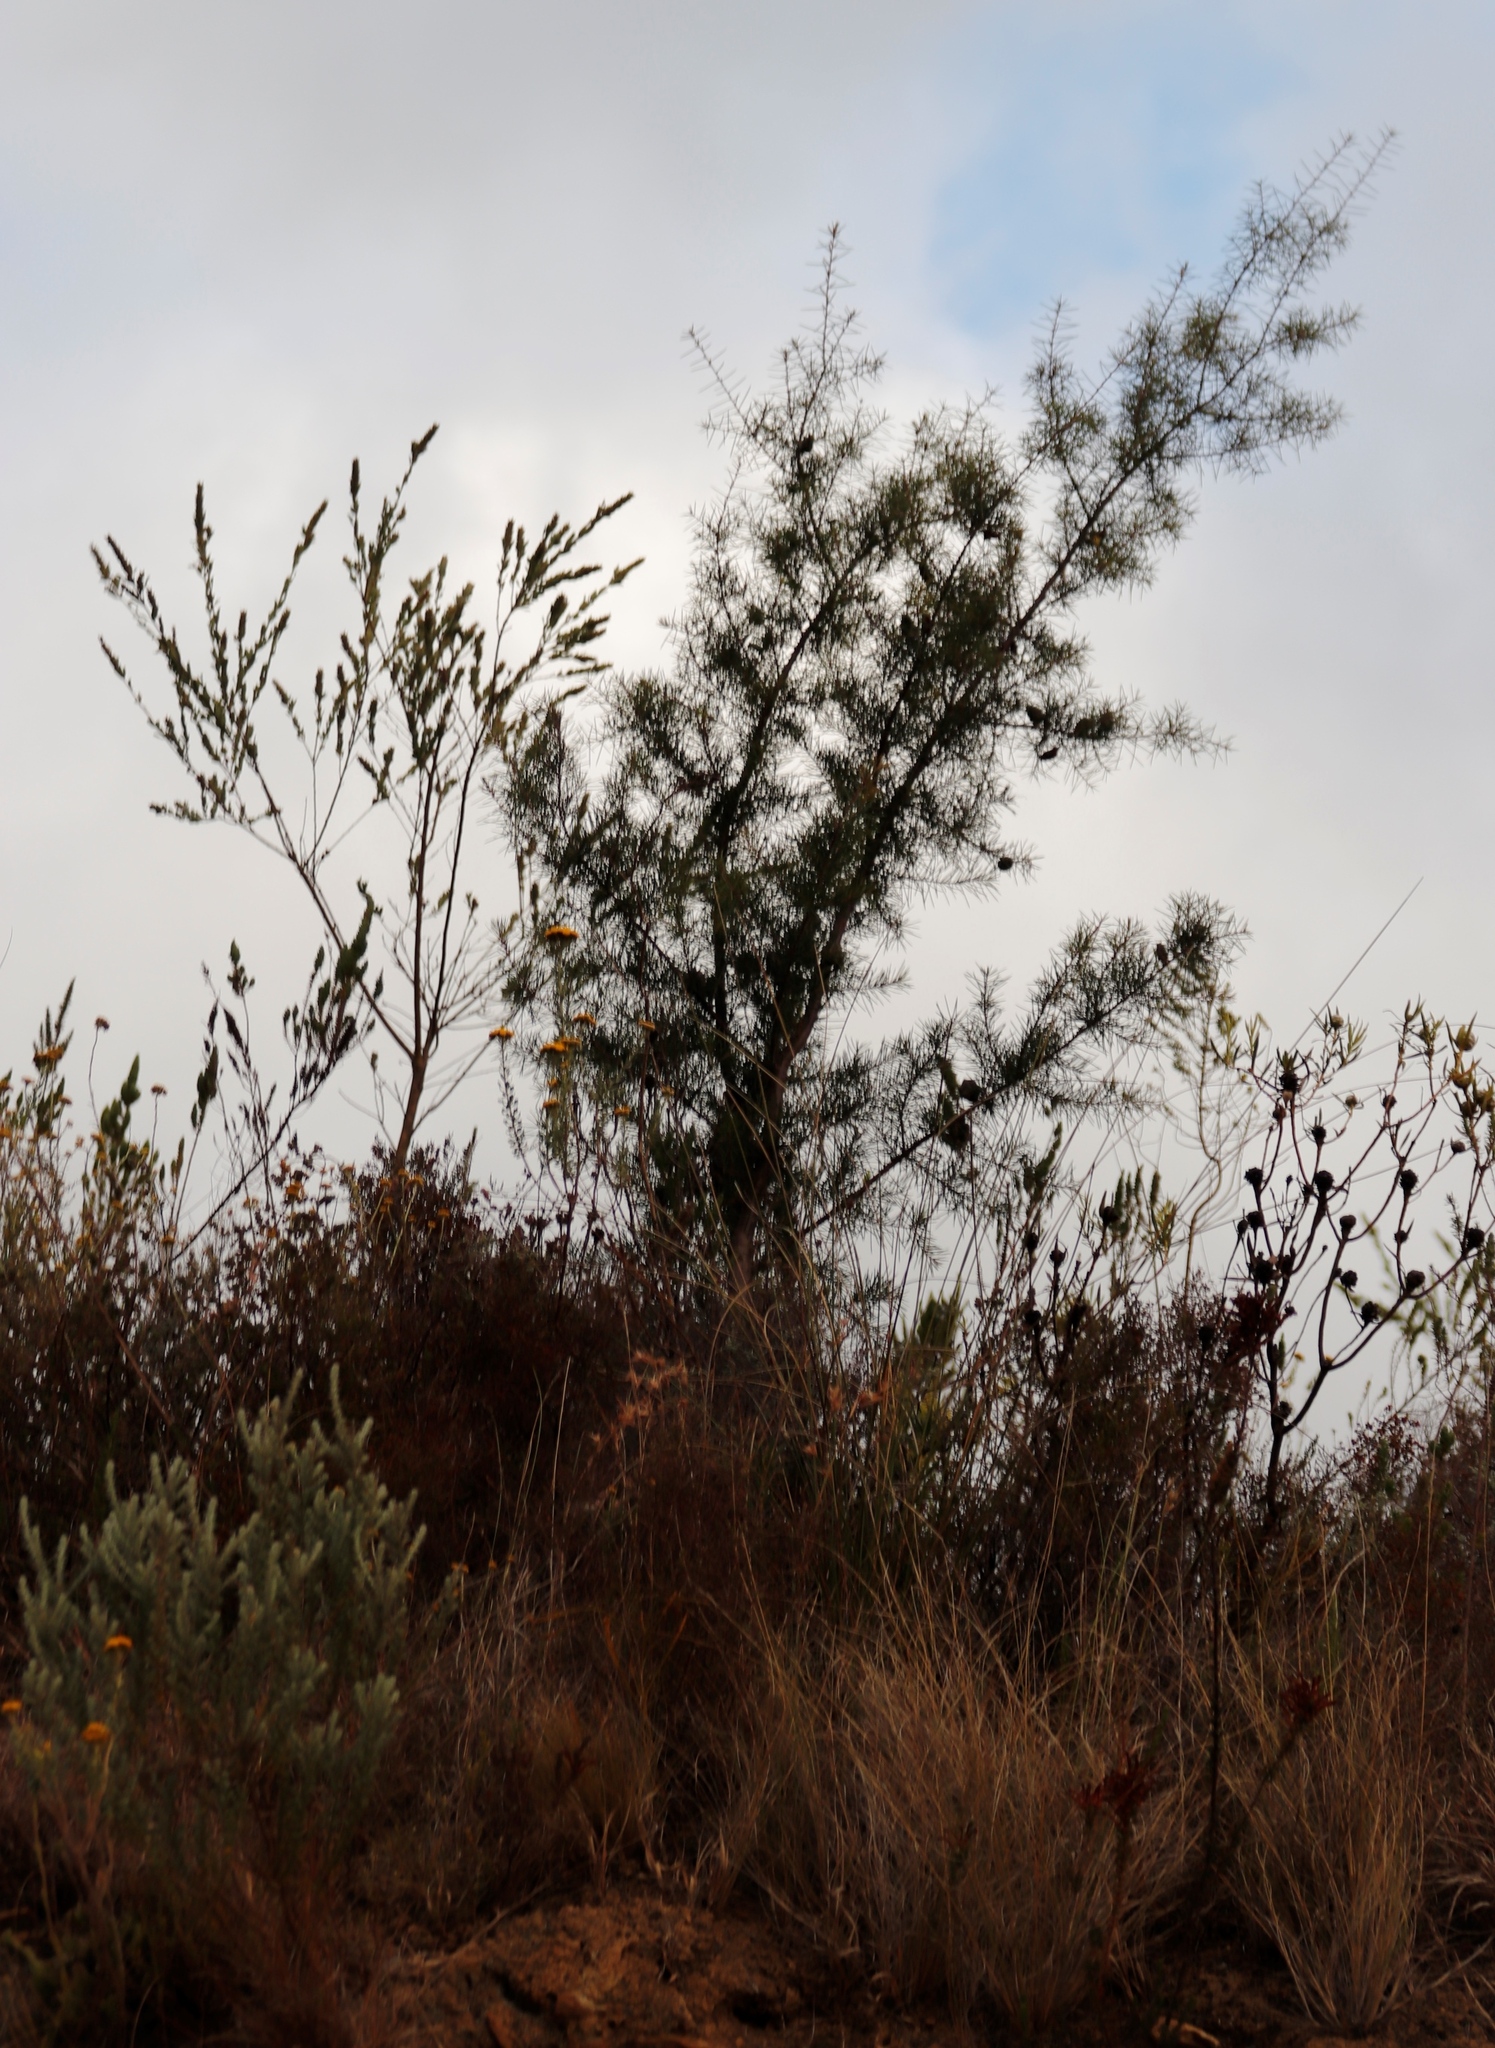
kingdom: Plantae
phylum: Tracheophyta
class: Magnoliopsida
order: Proteales
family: Proteaceae
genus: Hakea
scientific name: Hakea sericea
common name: Needle bush
